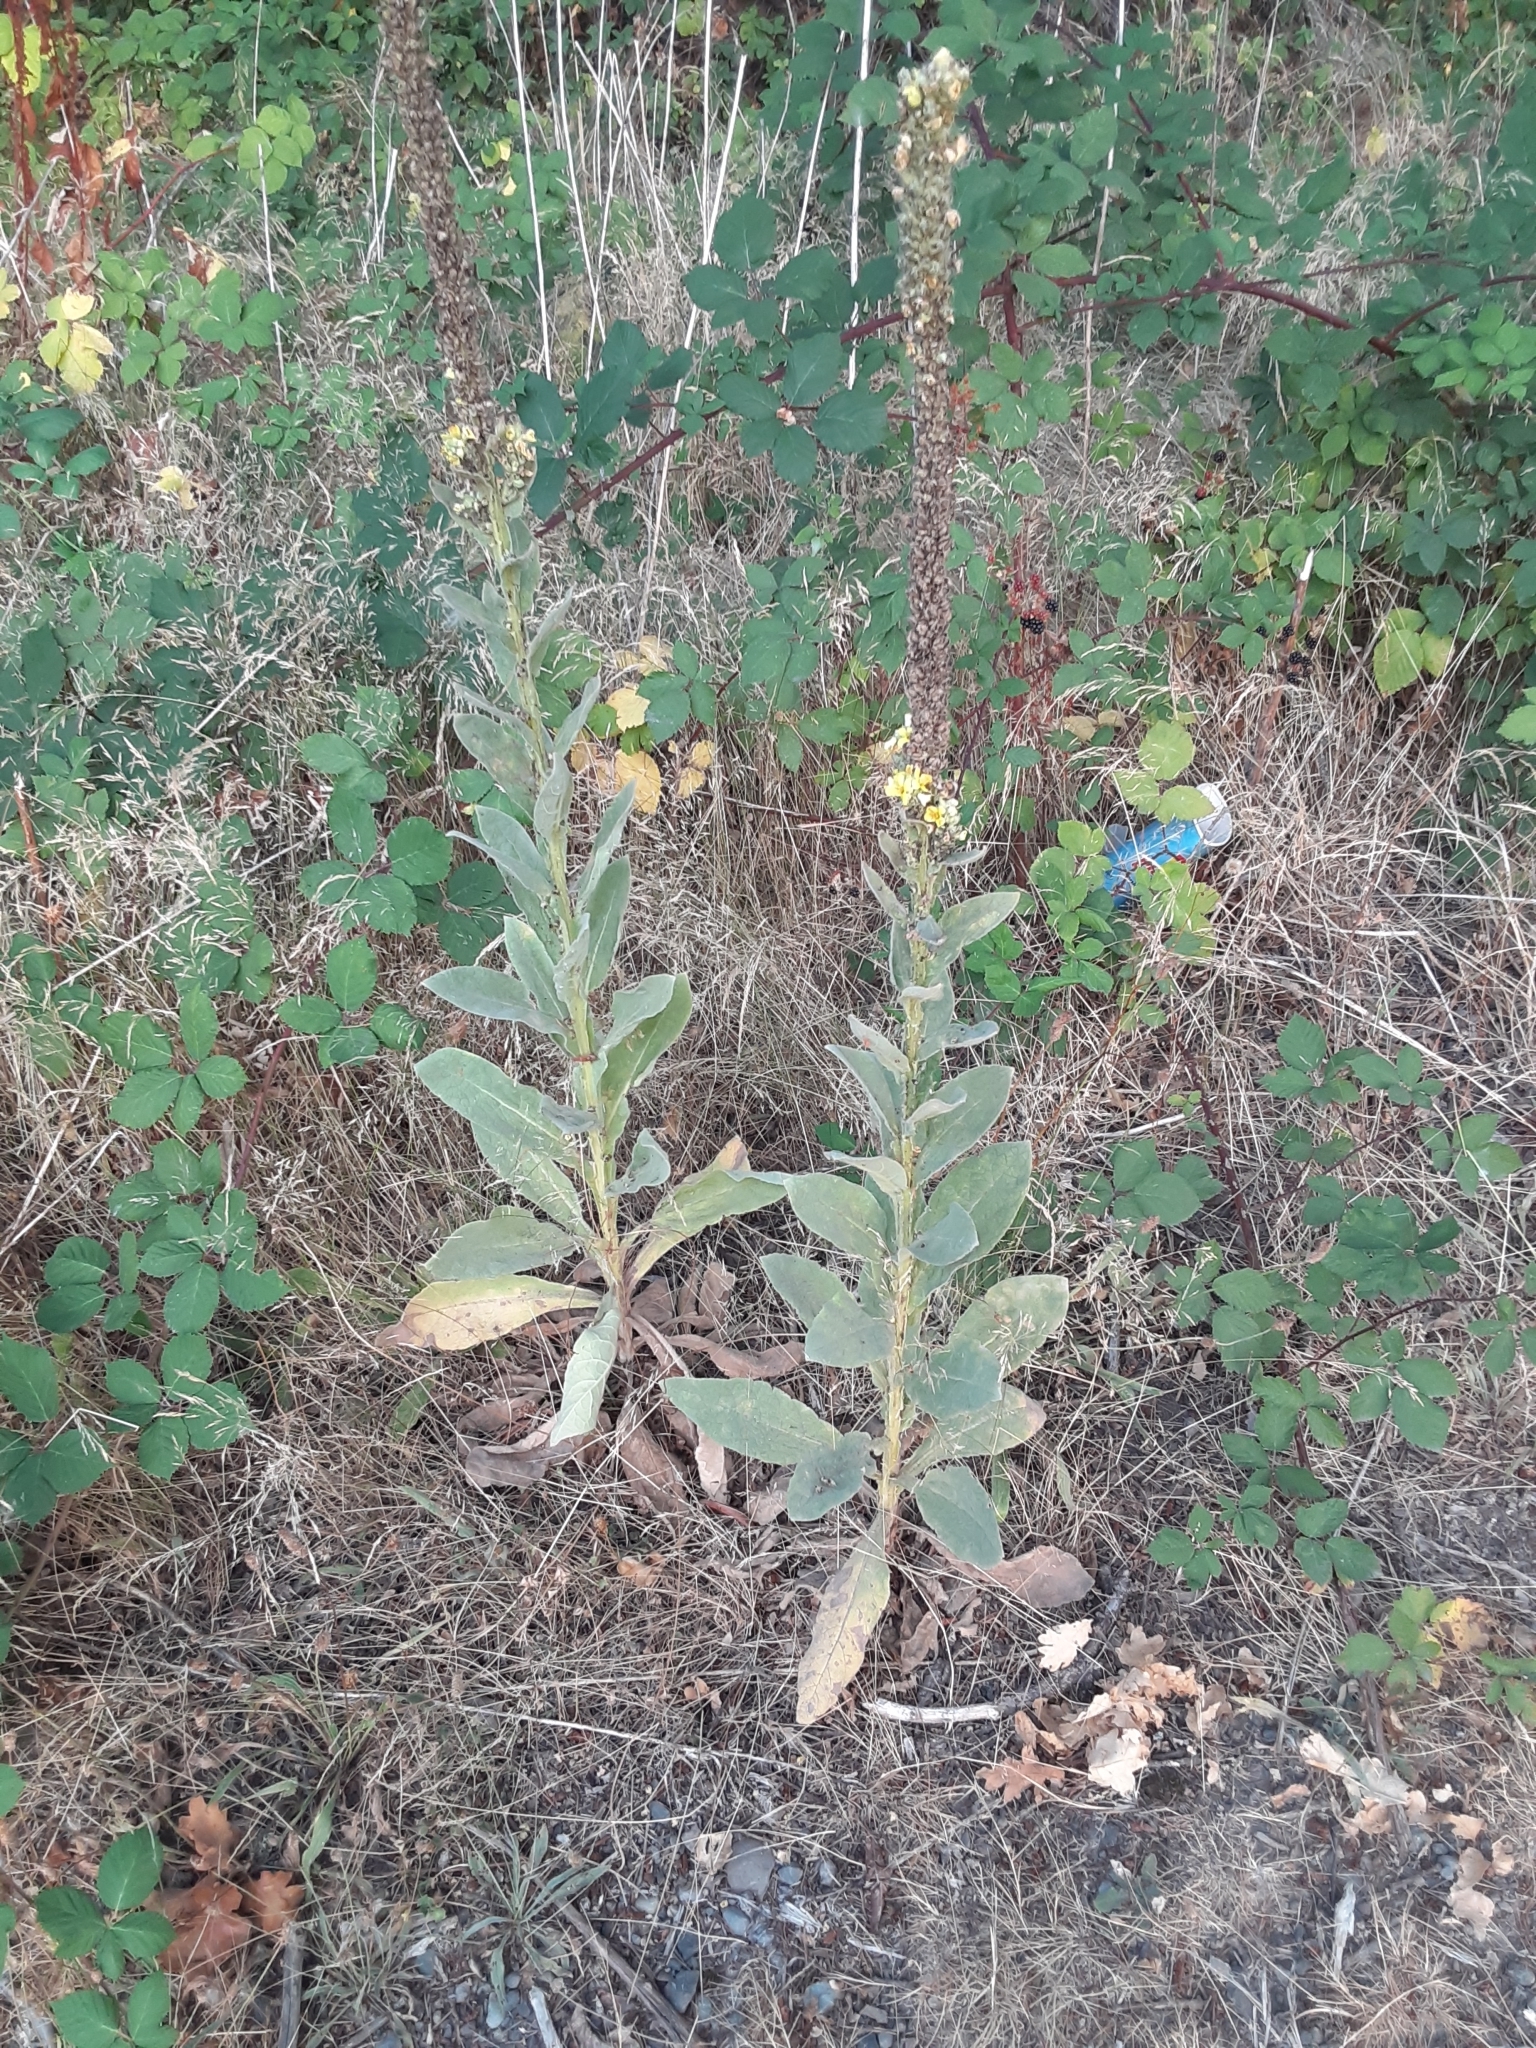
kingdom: Plantae
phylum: Tracheophyta
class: Magnoliopsida
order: Lamiales
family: Scrophulariaceae
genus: Verbascum
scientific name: Verbascum thapsus
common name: Common mullein
